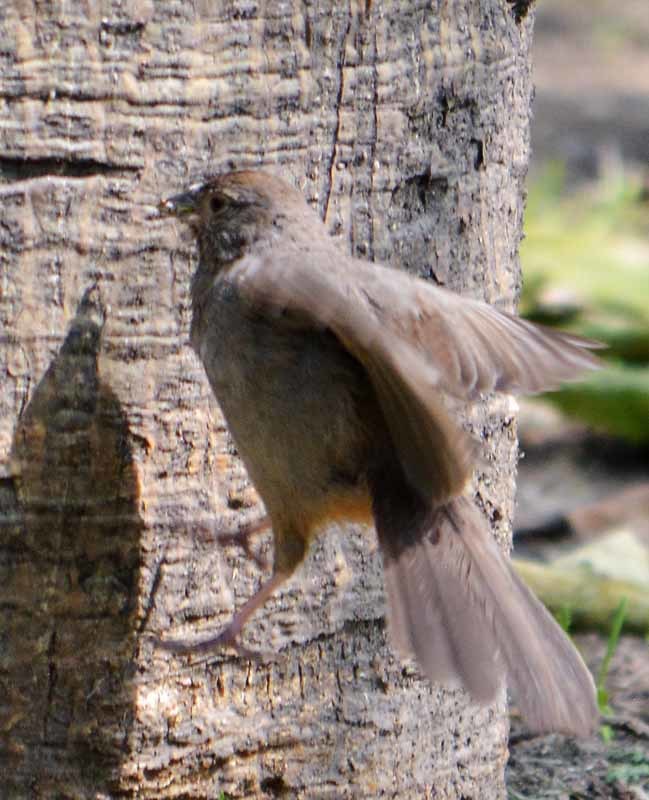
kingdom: Animalia
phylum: Chordata
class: Aves
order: Passeriformes
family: Passerellidae
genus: Melozone
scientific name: Melozone fusca
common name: Canyon towhee
